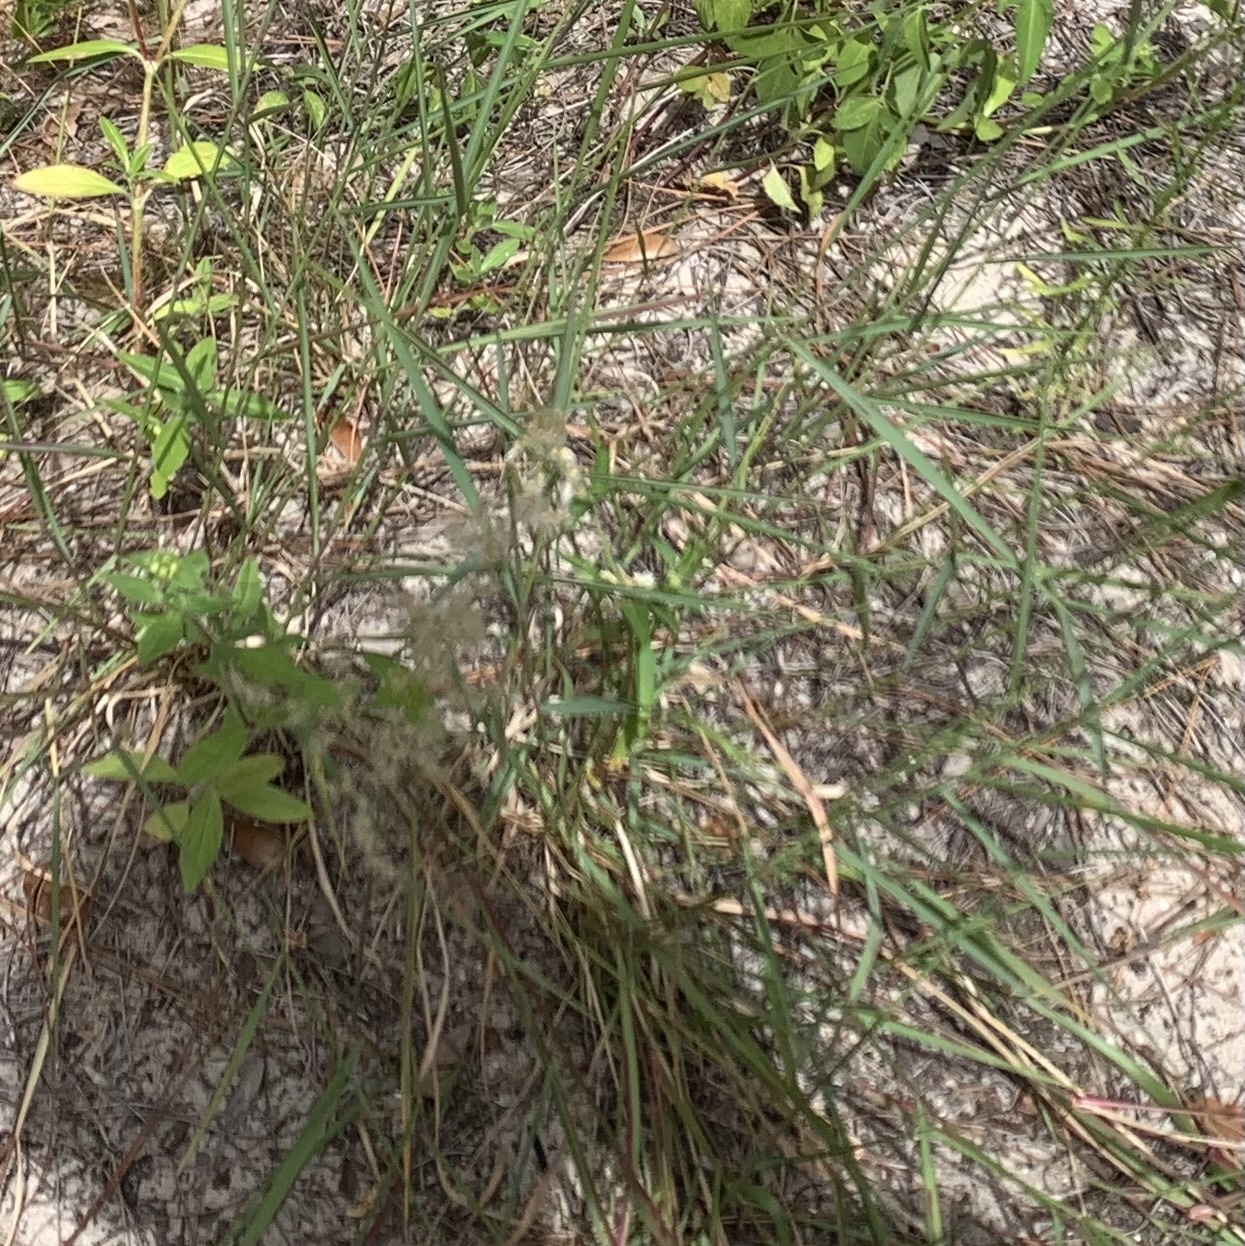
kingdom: Plantae
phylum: Tracheophyta
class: Liliopsida
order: Poales
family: Poaceae
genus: Melinis
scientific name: Melinis repens
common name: Rose natal grass
